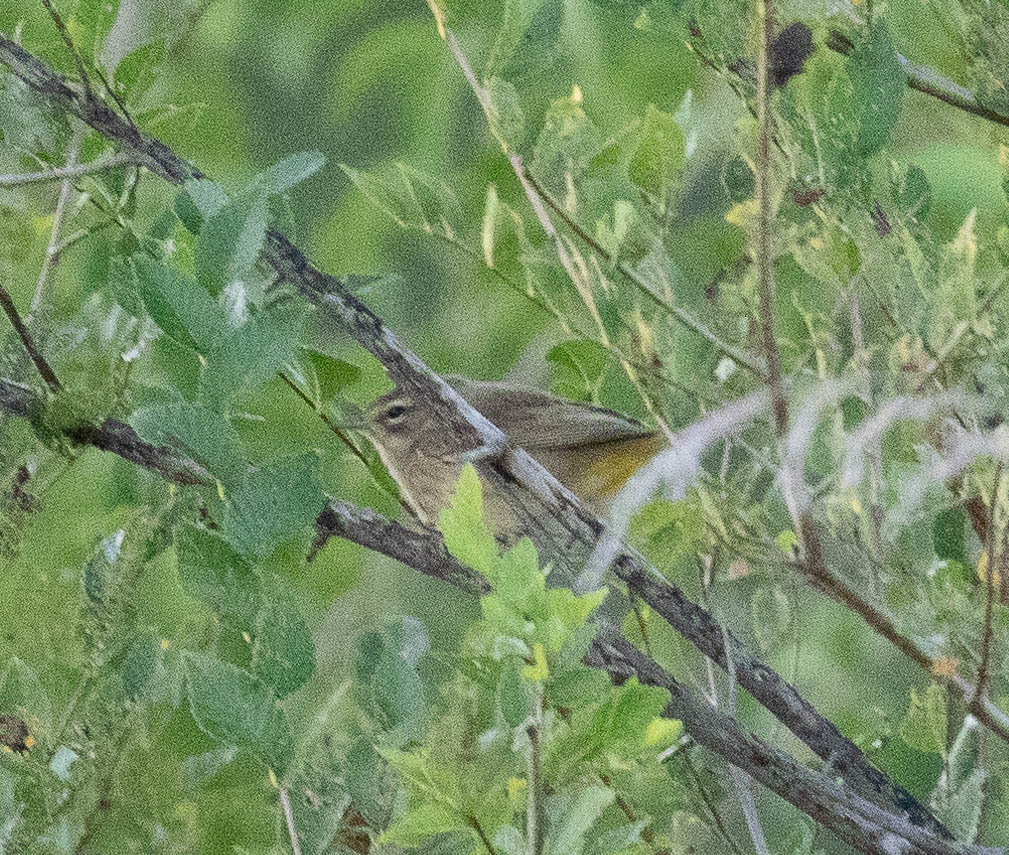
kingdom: Animalia
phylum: Chordata
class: Aves
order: Passeriformes
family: Parulidae
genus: Setophaga
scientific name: Setophaga palmarum
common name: Palm warbler
